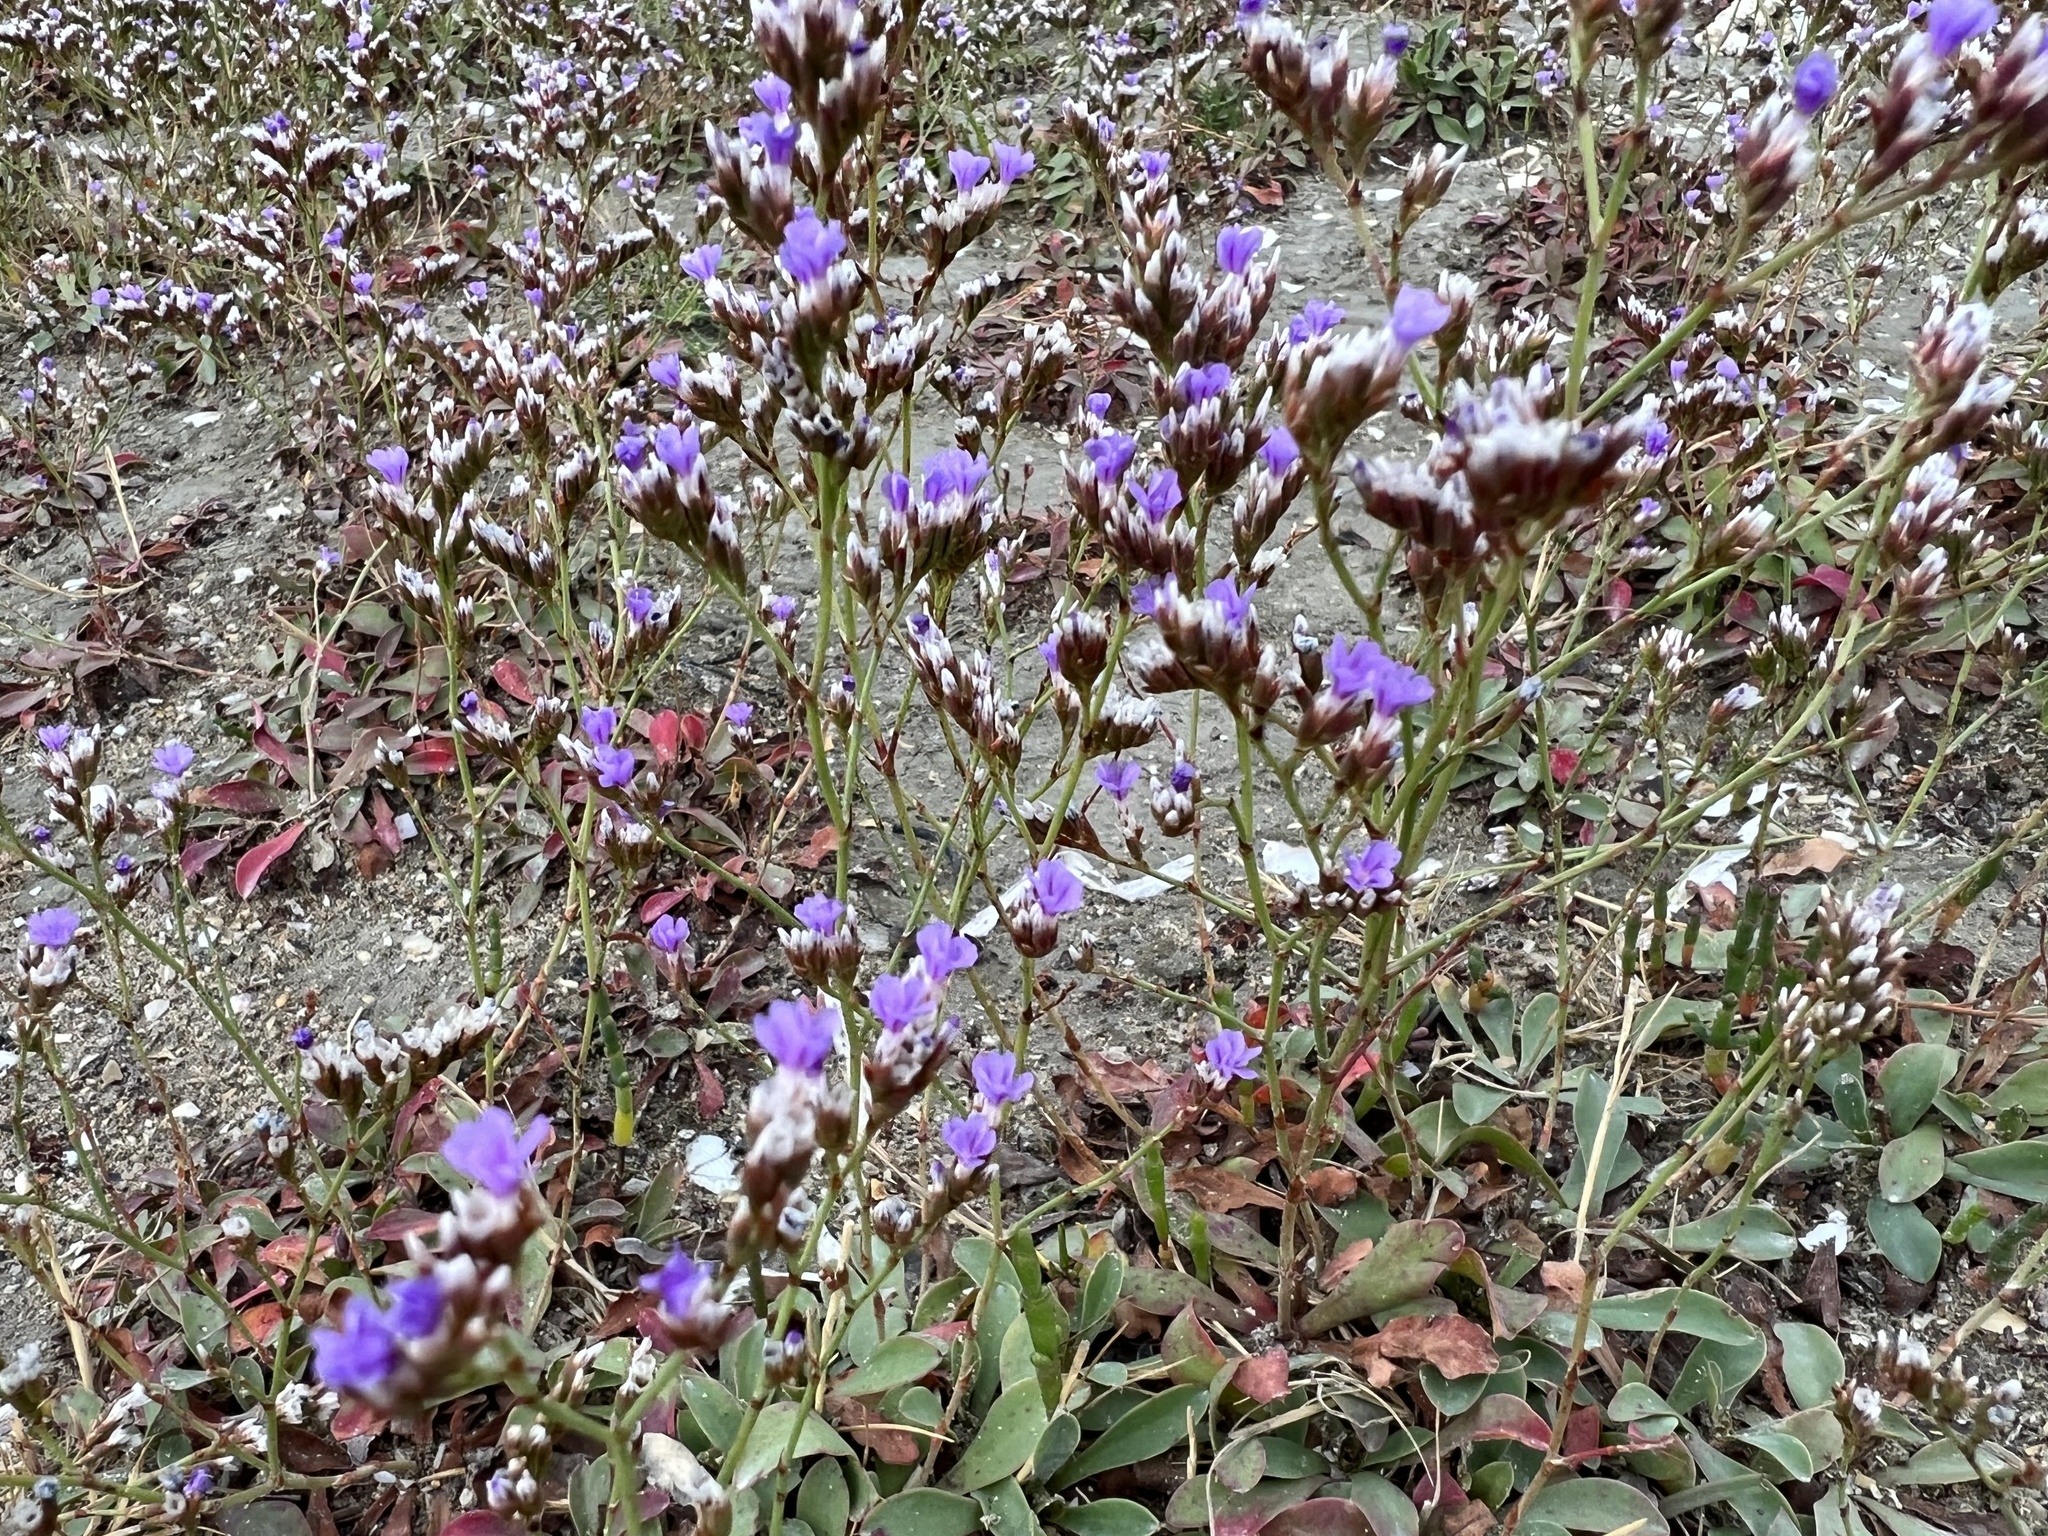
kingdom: Plantae
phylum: Tracheophyta
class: Magnoliopsida
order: Caryophyllales
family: Plumbaginaceae
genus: Limonium
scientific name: Limonium binervosum
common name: Rock sea-lavender
